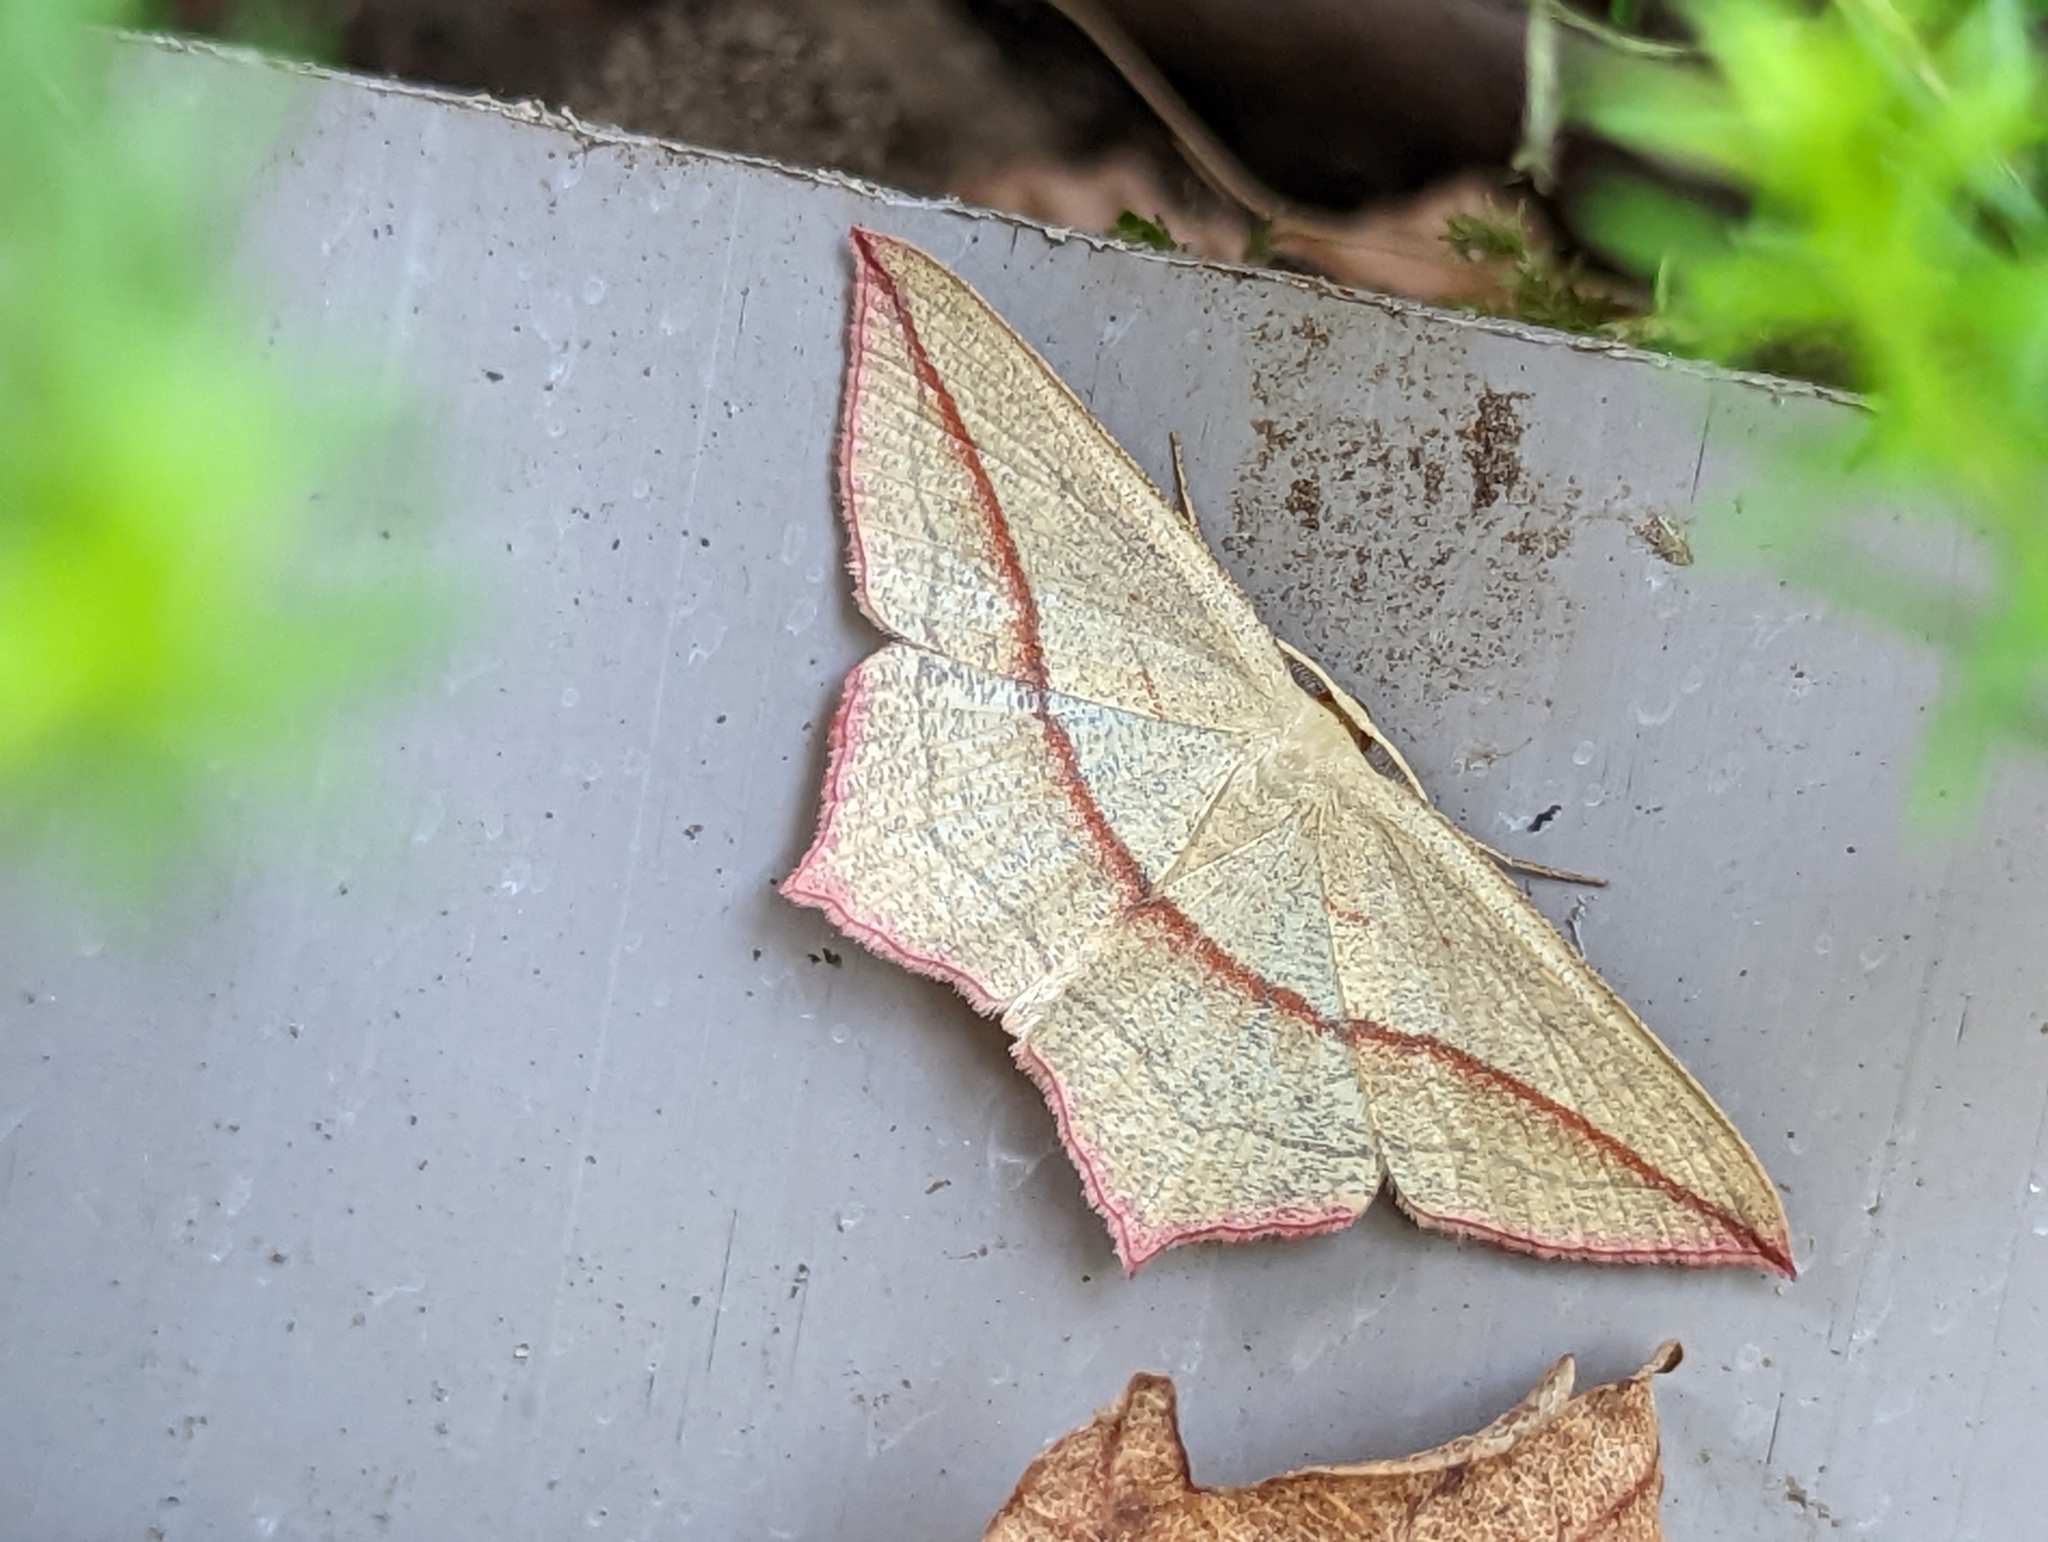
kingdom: Animalia
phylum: Arthropoda
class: Insecta
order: Lepidoptera
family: Geometridae
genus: Timandra
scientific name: Timandra comae
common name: Blood-vein
